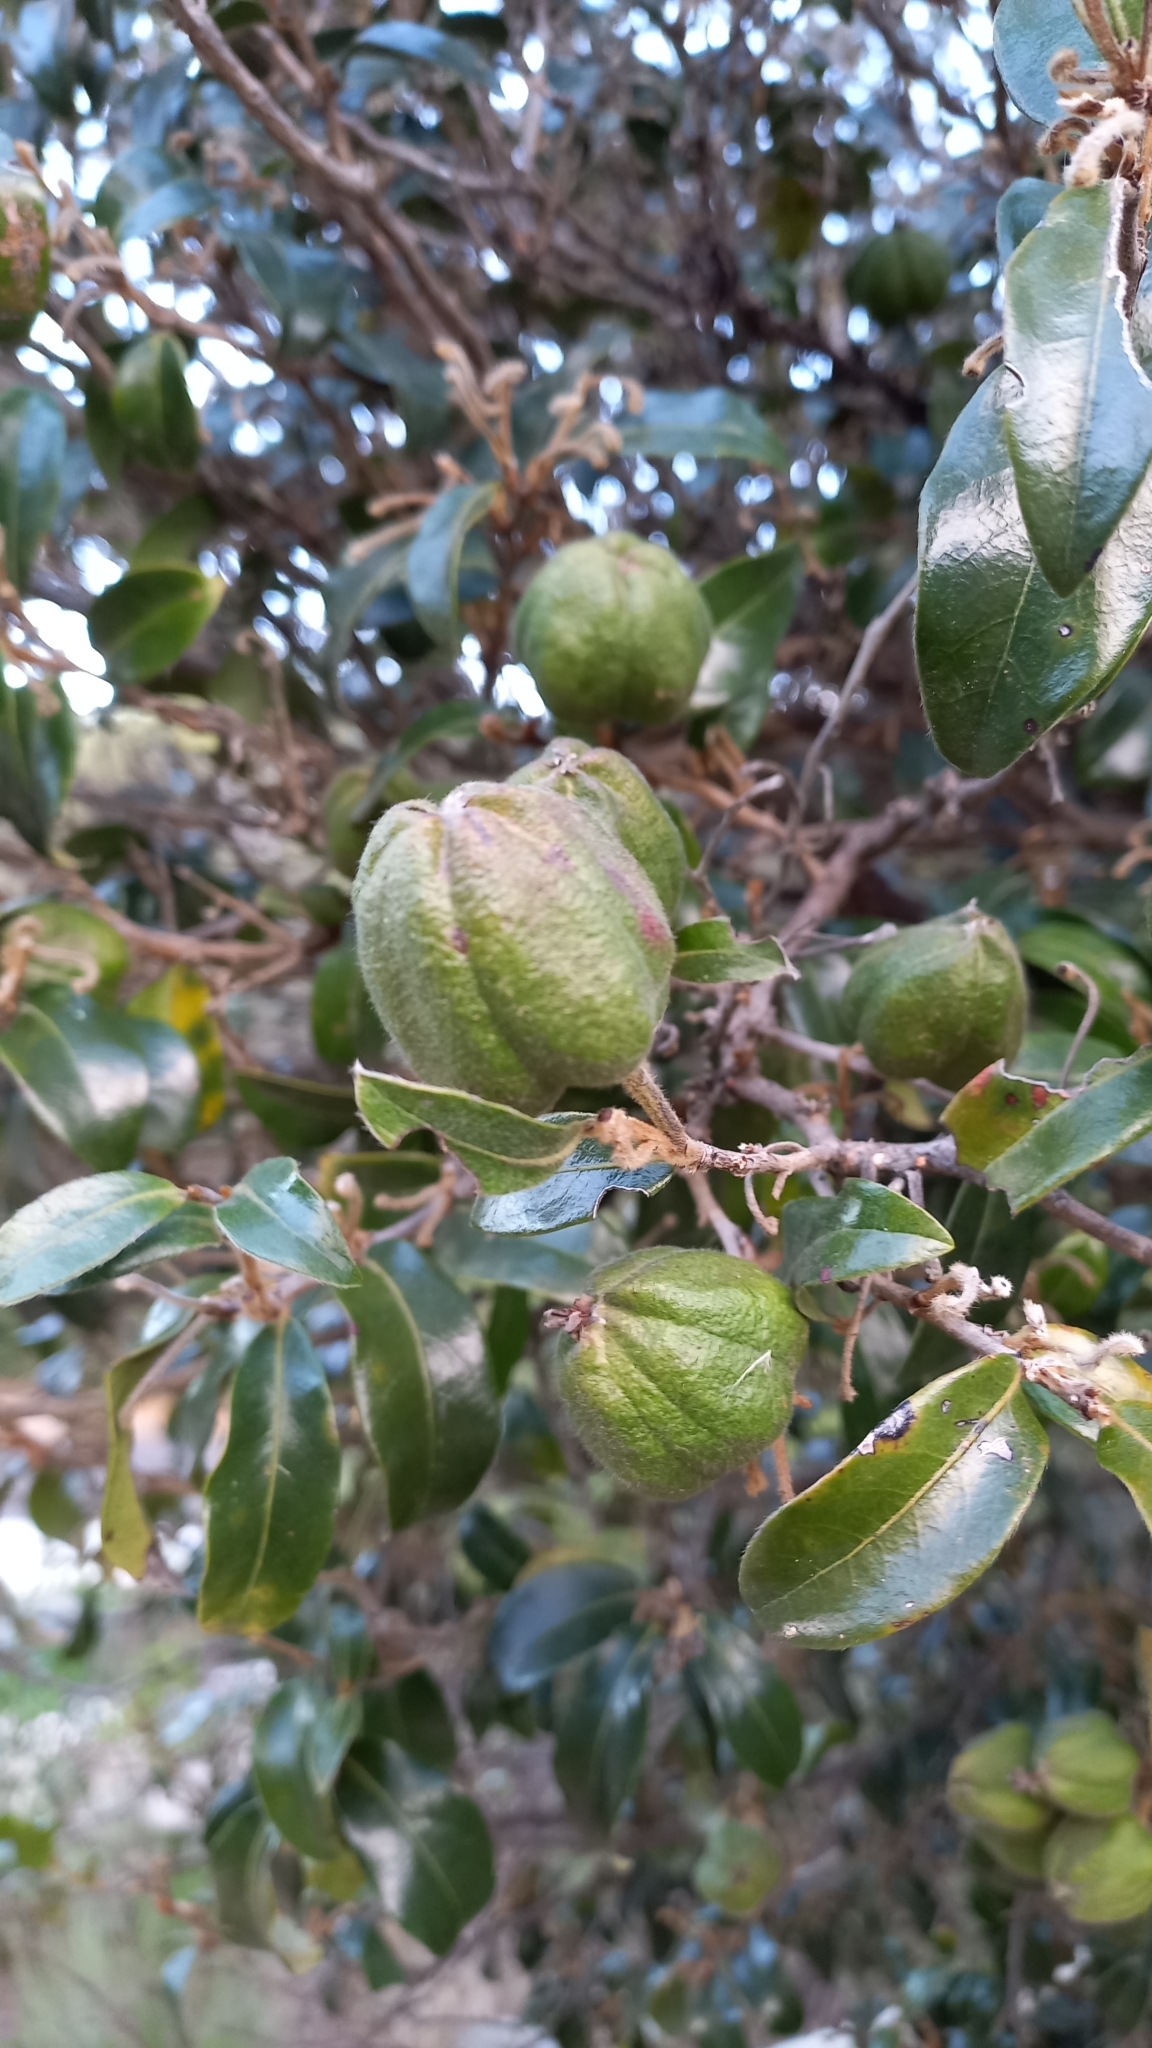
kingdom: Plantae
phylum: Tracheophyta
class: Magnoliopsida
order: Ericales
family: Ebenaceae
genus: Diospyros
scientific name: Diospyros whyteana
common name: Bladder-nut
